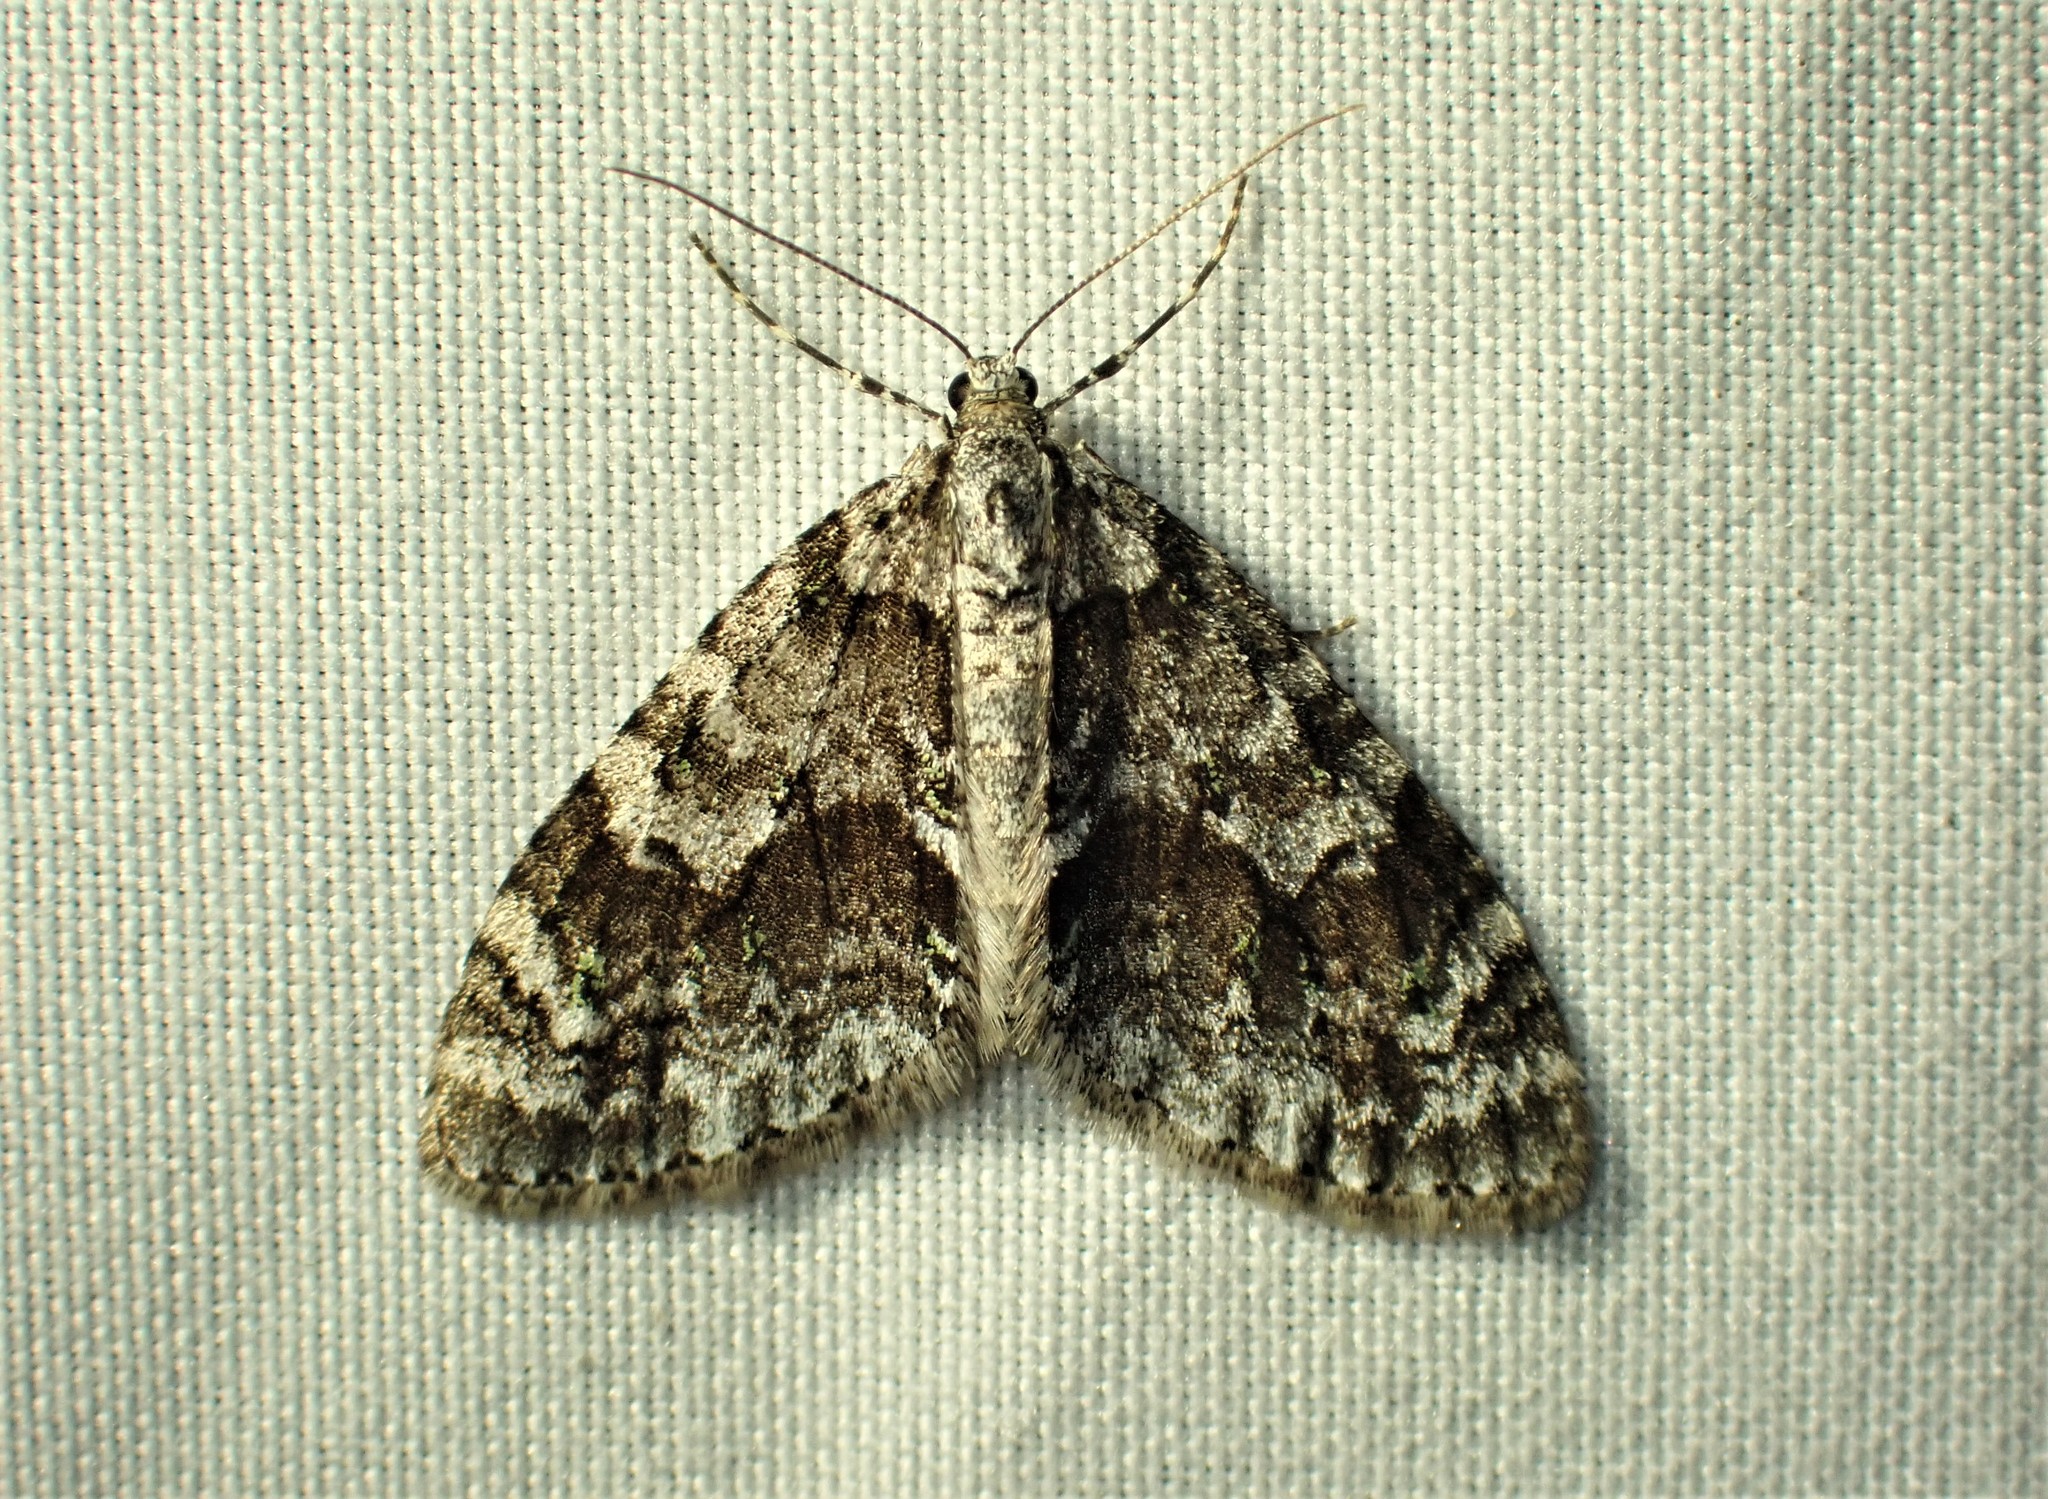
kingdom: Animalia
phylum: Arthropoda
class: Insecta
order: Lepidoptera
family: Geometridae
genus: Cladara
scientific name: Cladara limitaria
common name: Mottled gray carpet
